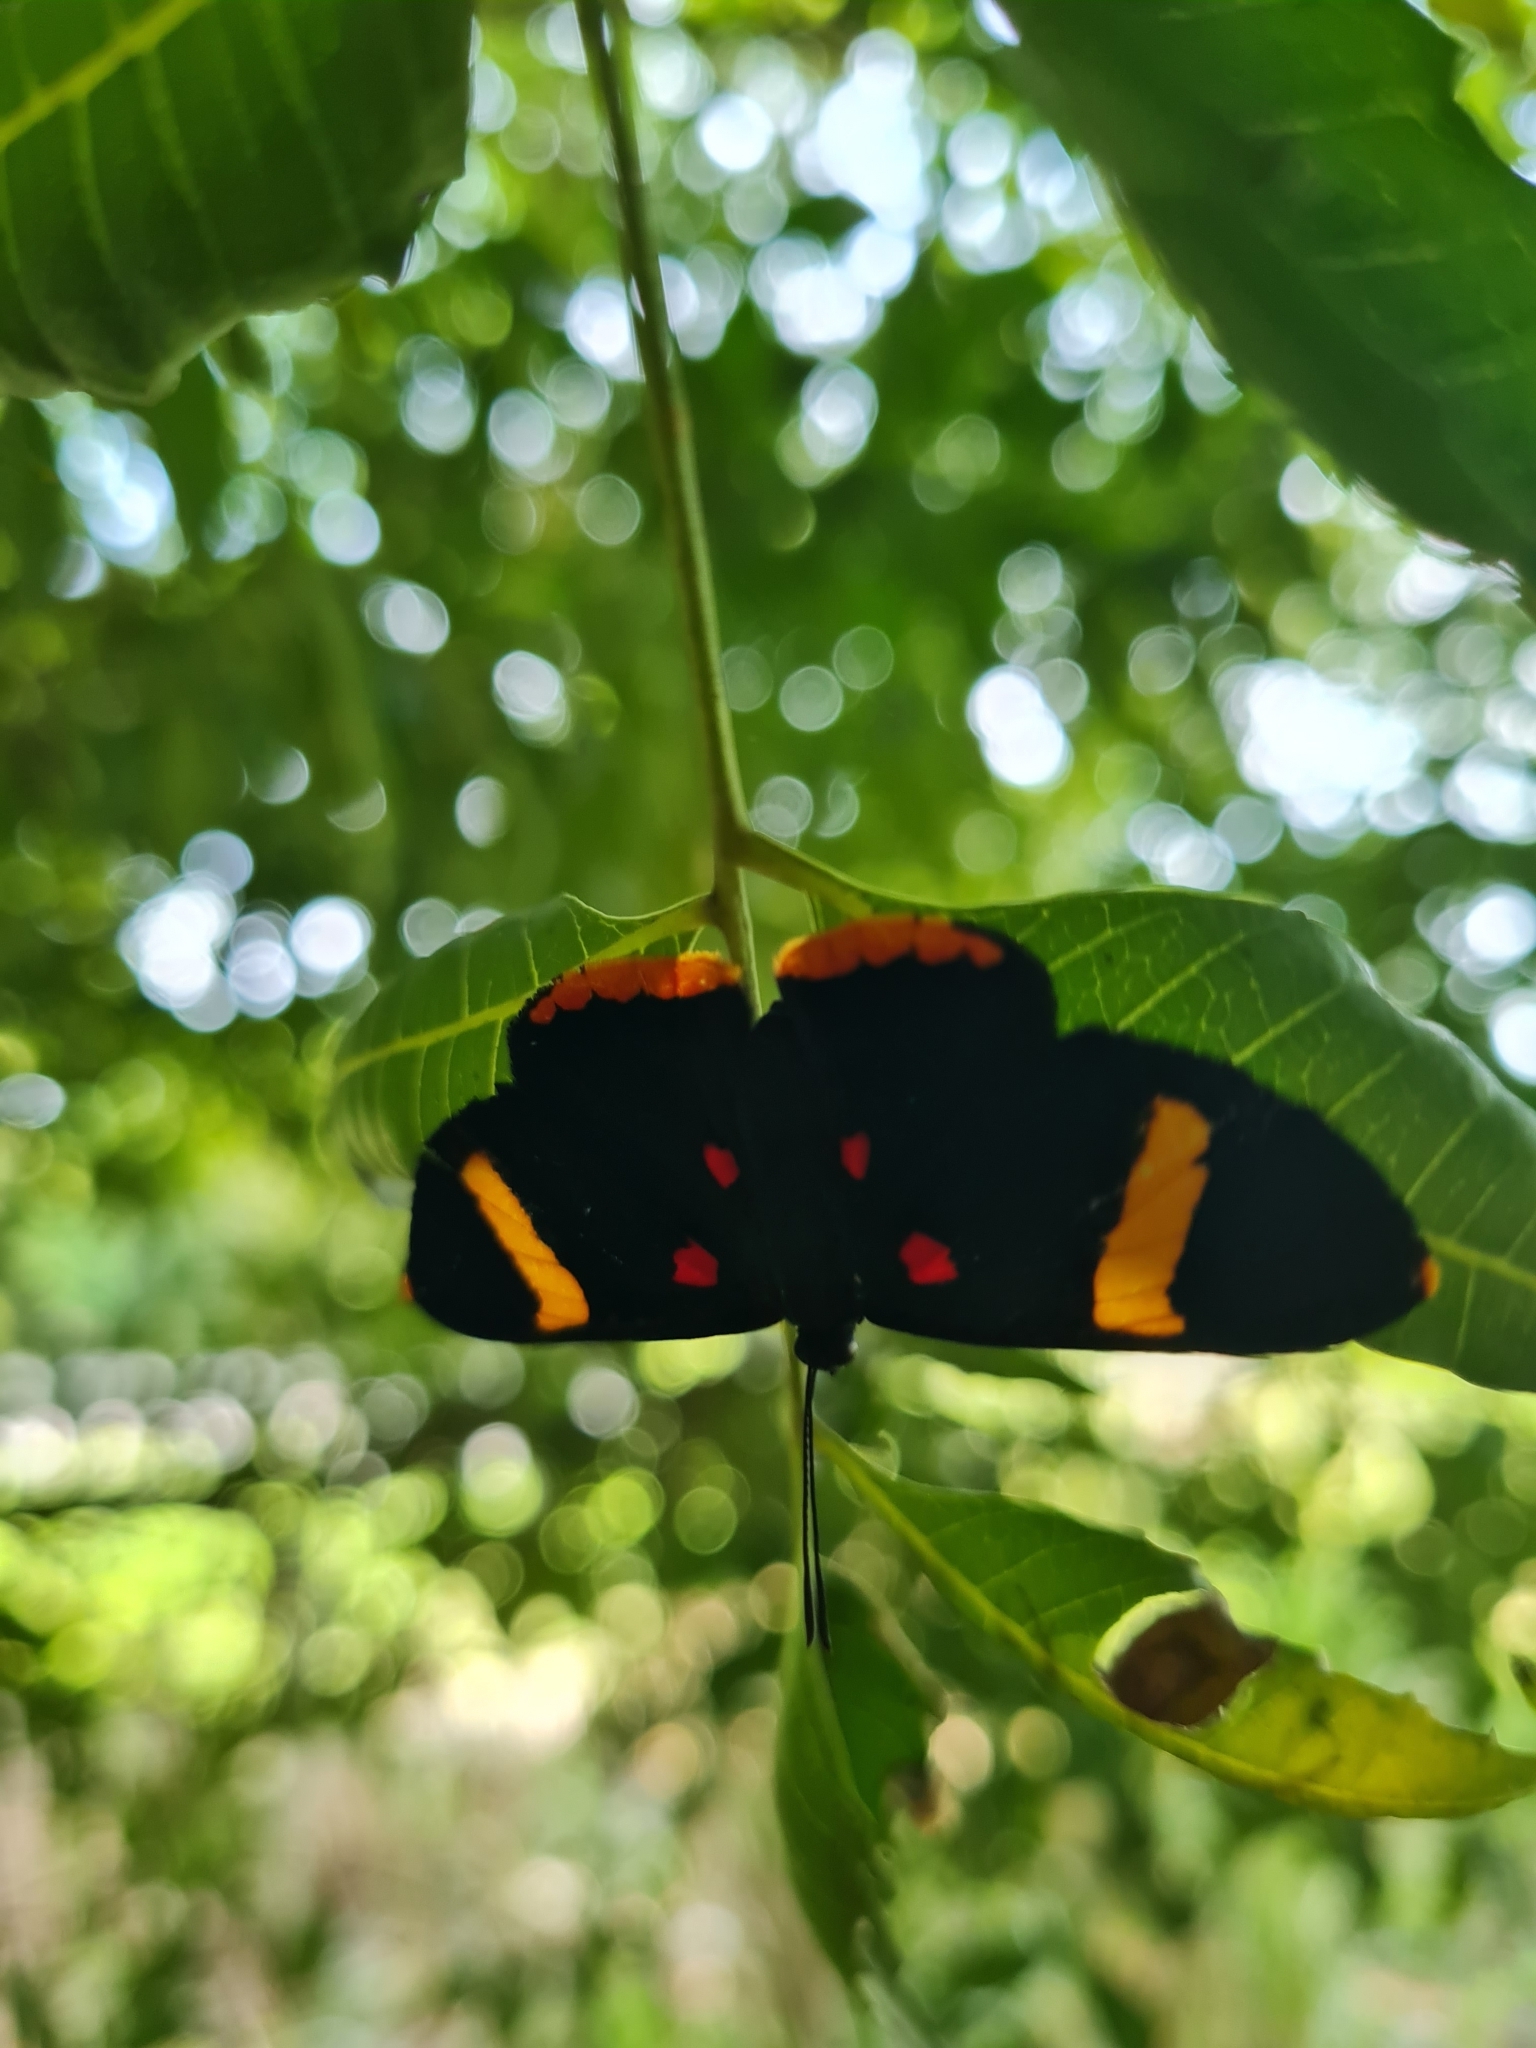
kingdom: Animalia
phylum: Arthropoda
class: Insecta
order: Lepidoptera
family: Lycaenidae
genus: Melanis
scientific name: Melanis electron
